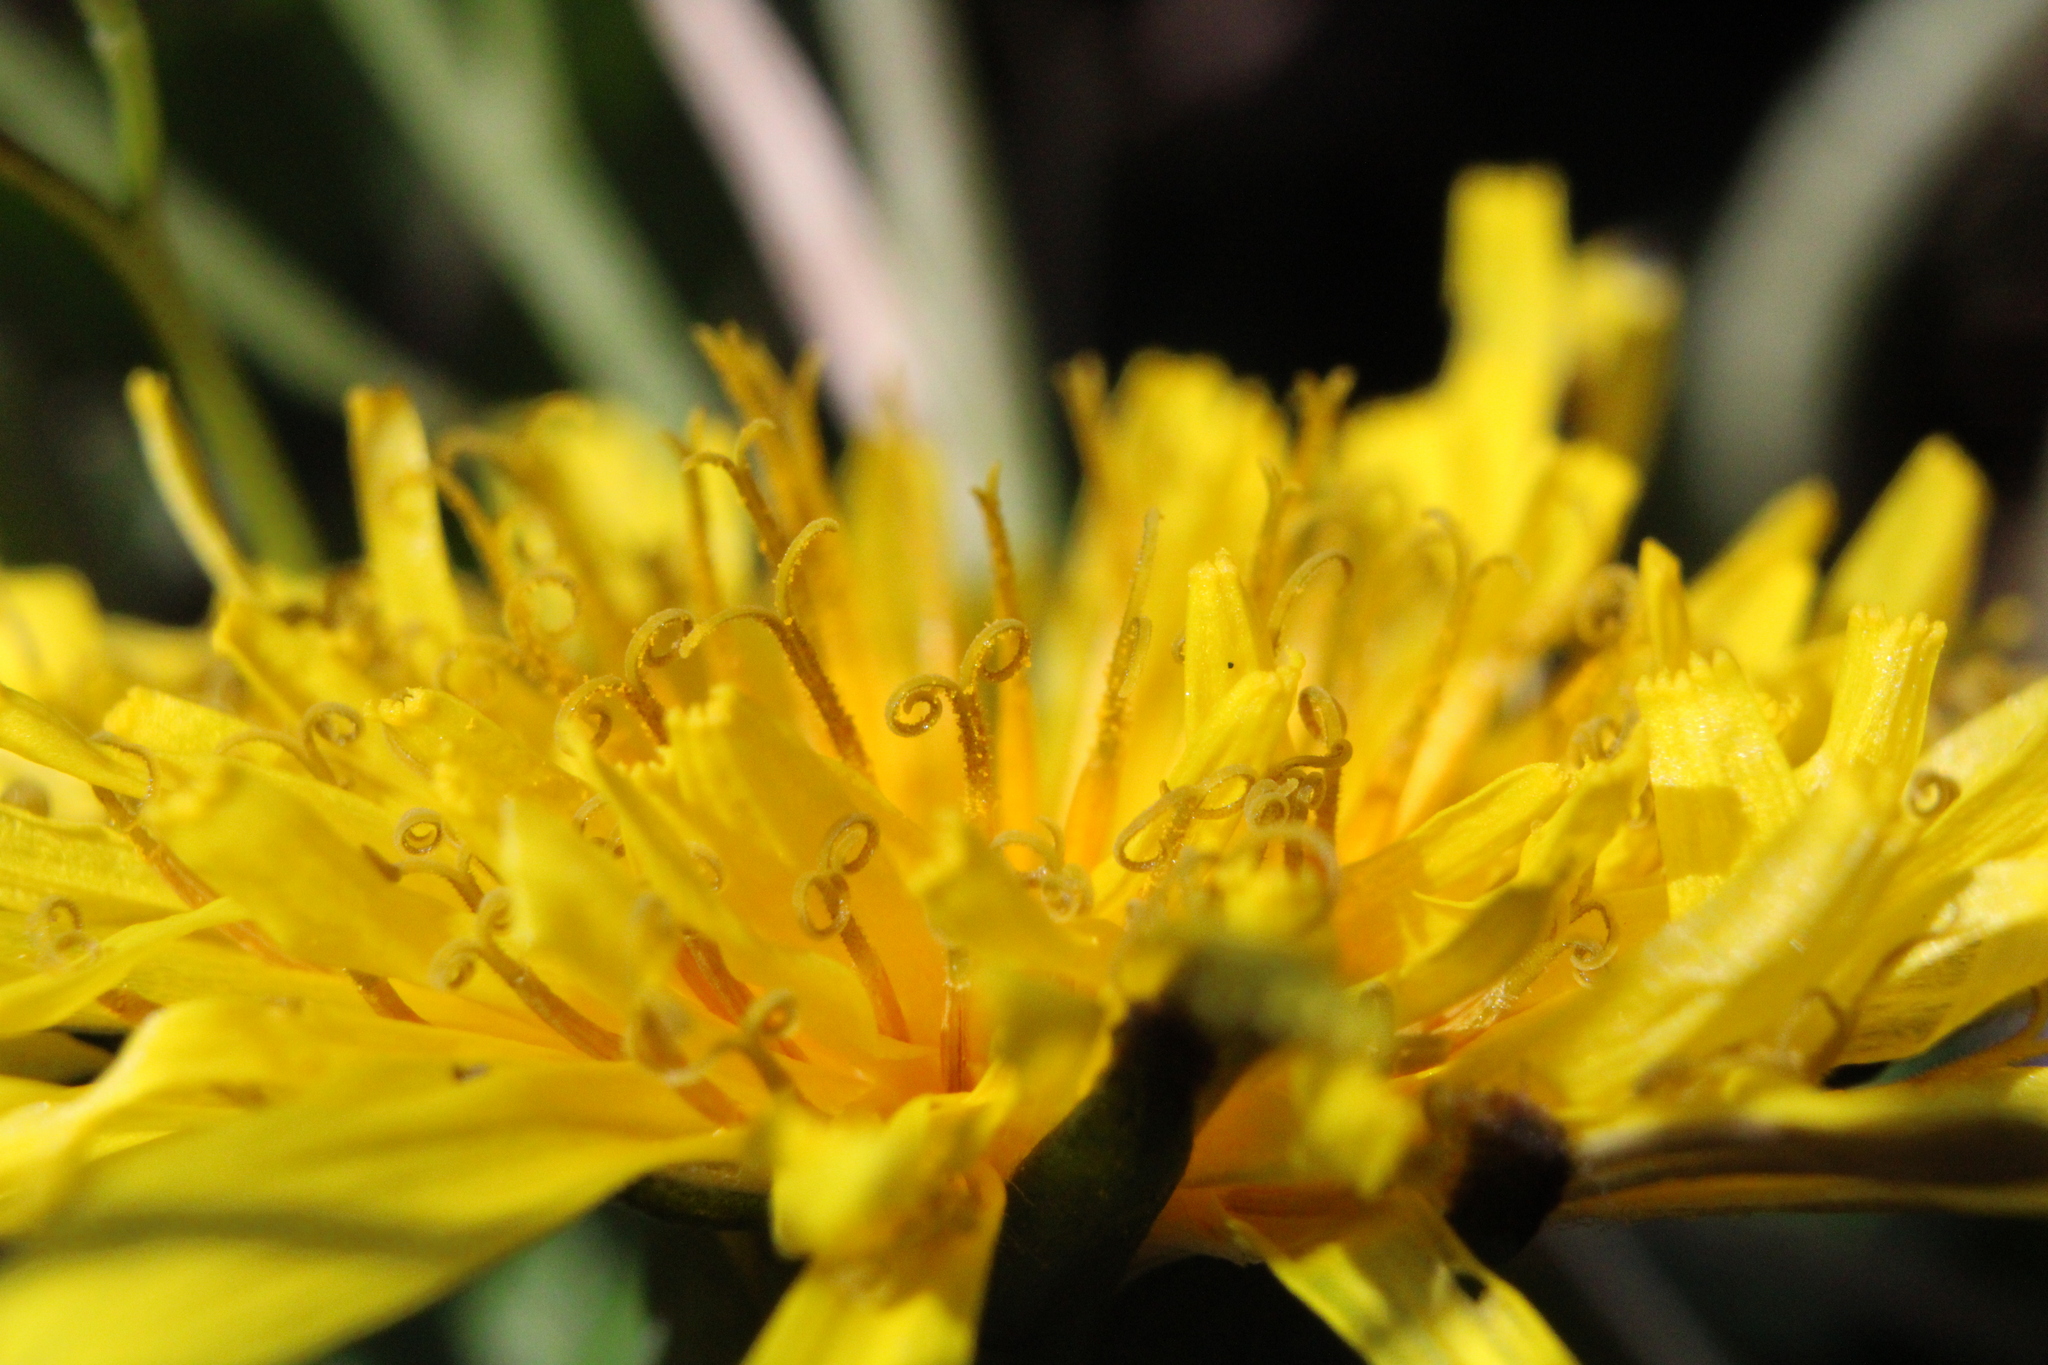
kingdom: Plantae
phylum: Tracheophyta
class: Magnoliopsida
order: Asterales
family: Asteraceae
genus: Taraxacum
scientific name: Taraxacum
